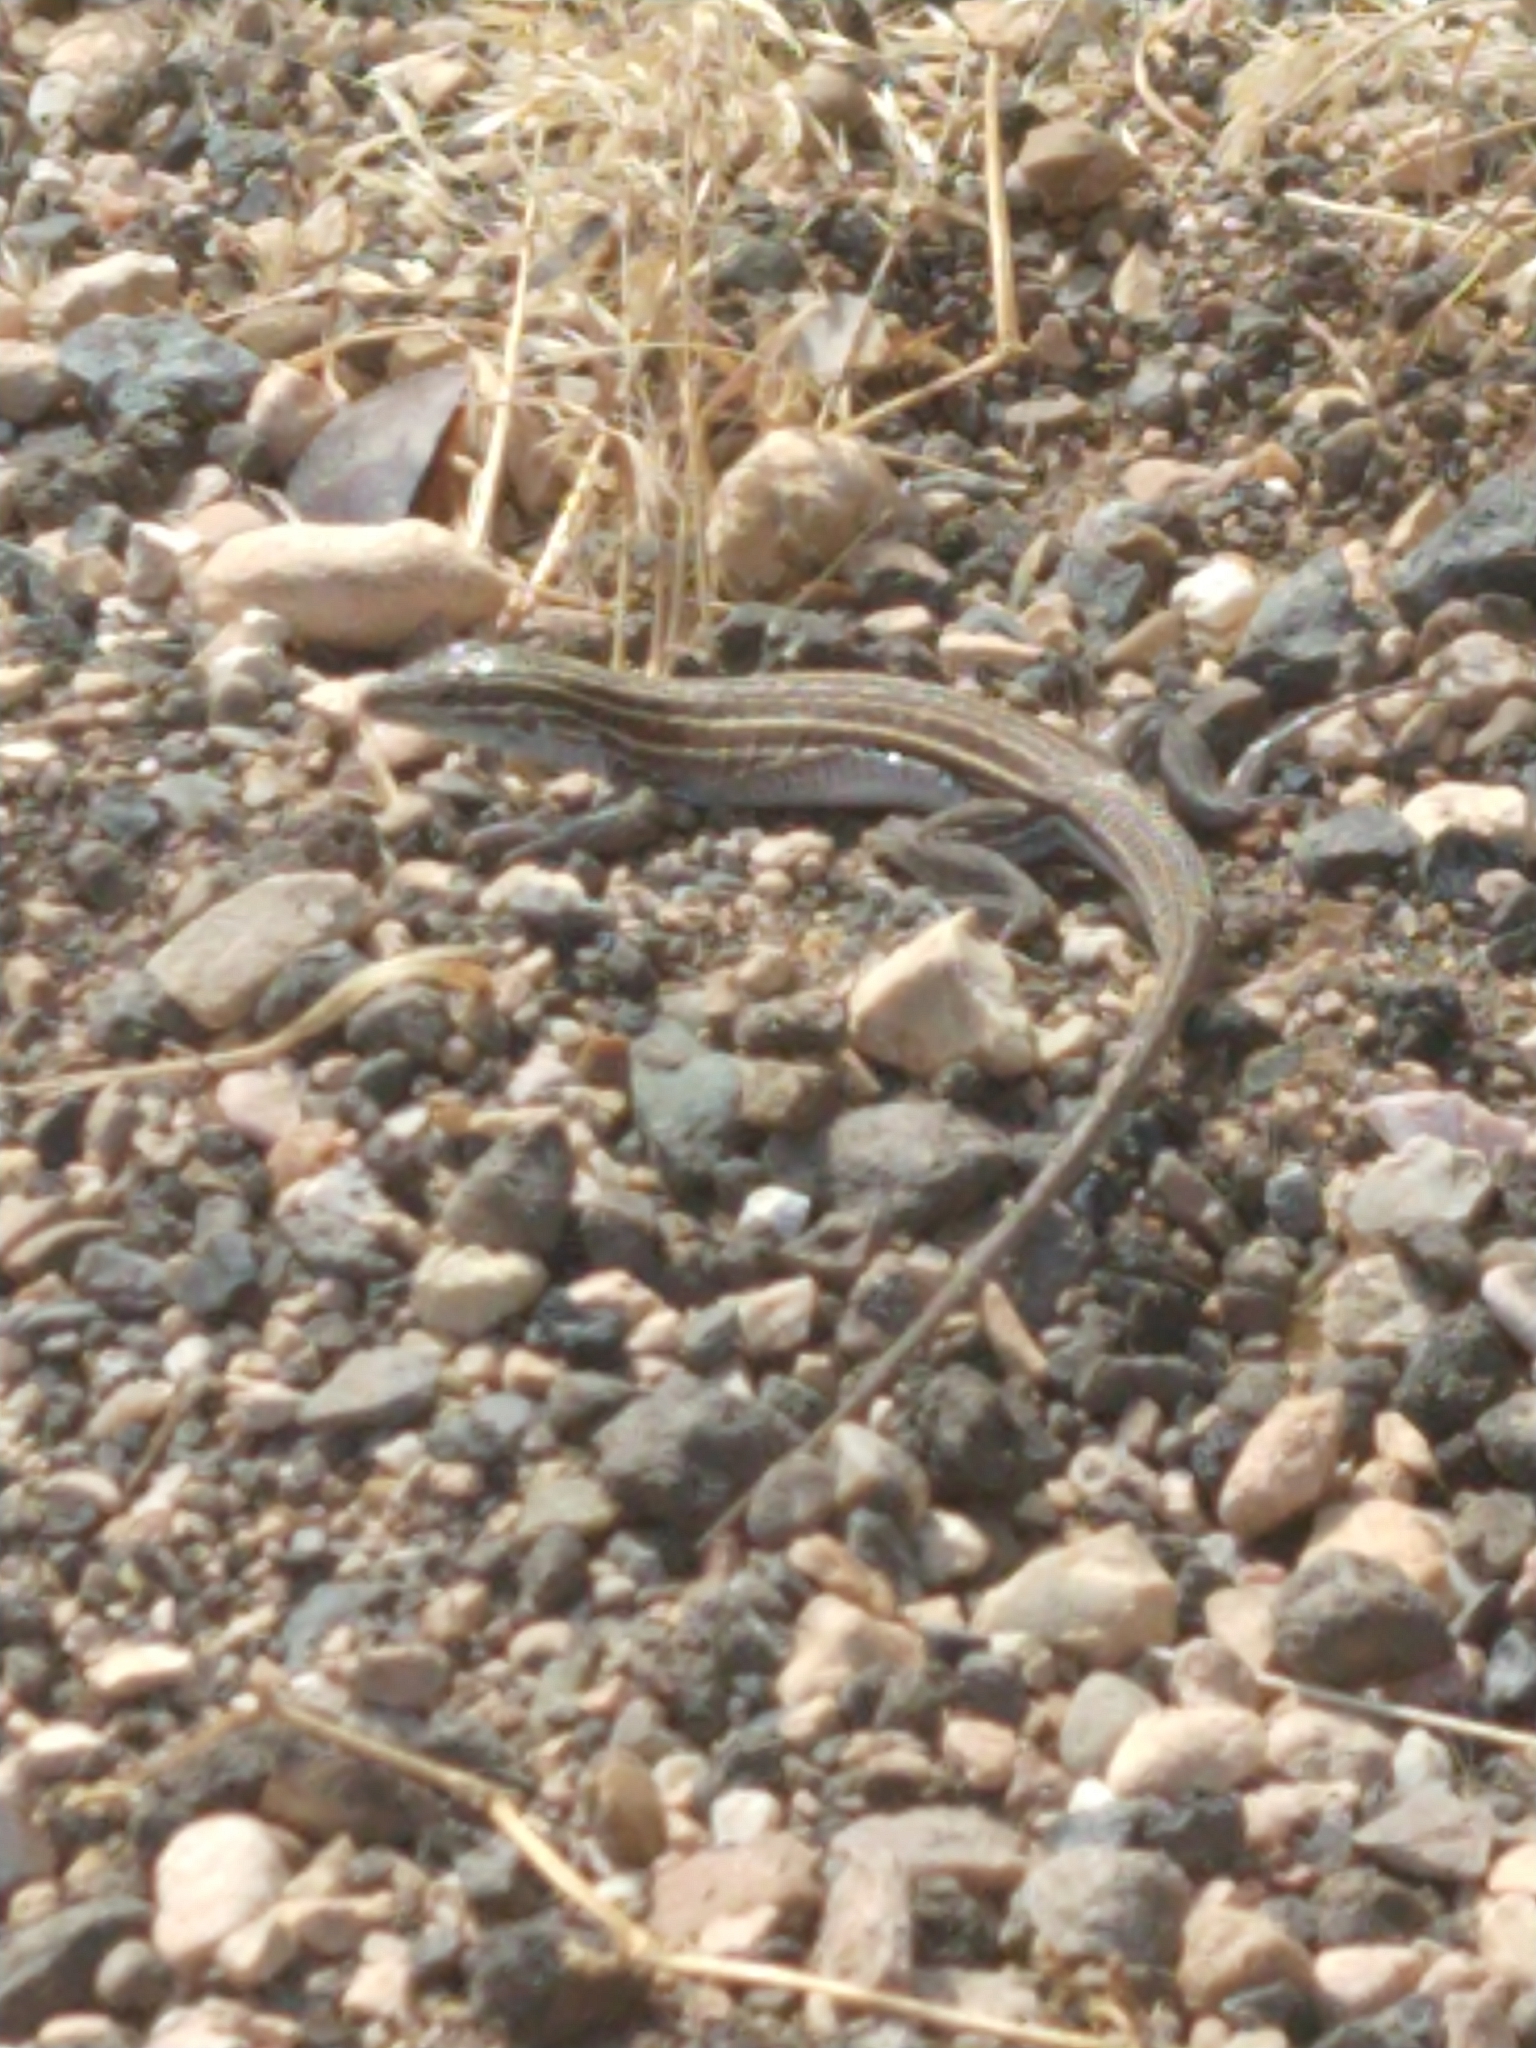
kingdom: Animalia
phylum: Chordata
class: Squamata
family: Teiidae
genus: Aspidoscelis
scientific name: Aspidoscelis velox
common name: Plateau striped whiptail
